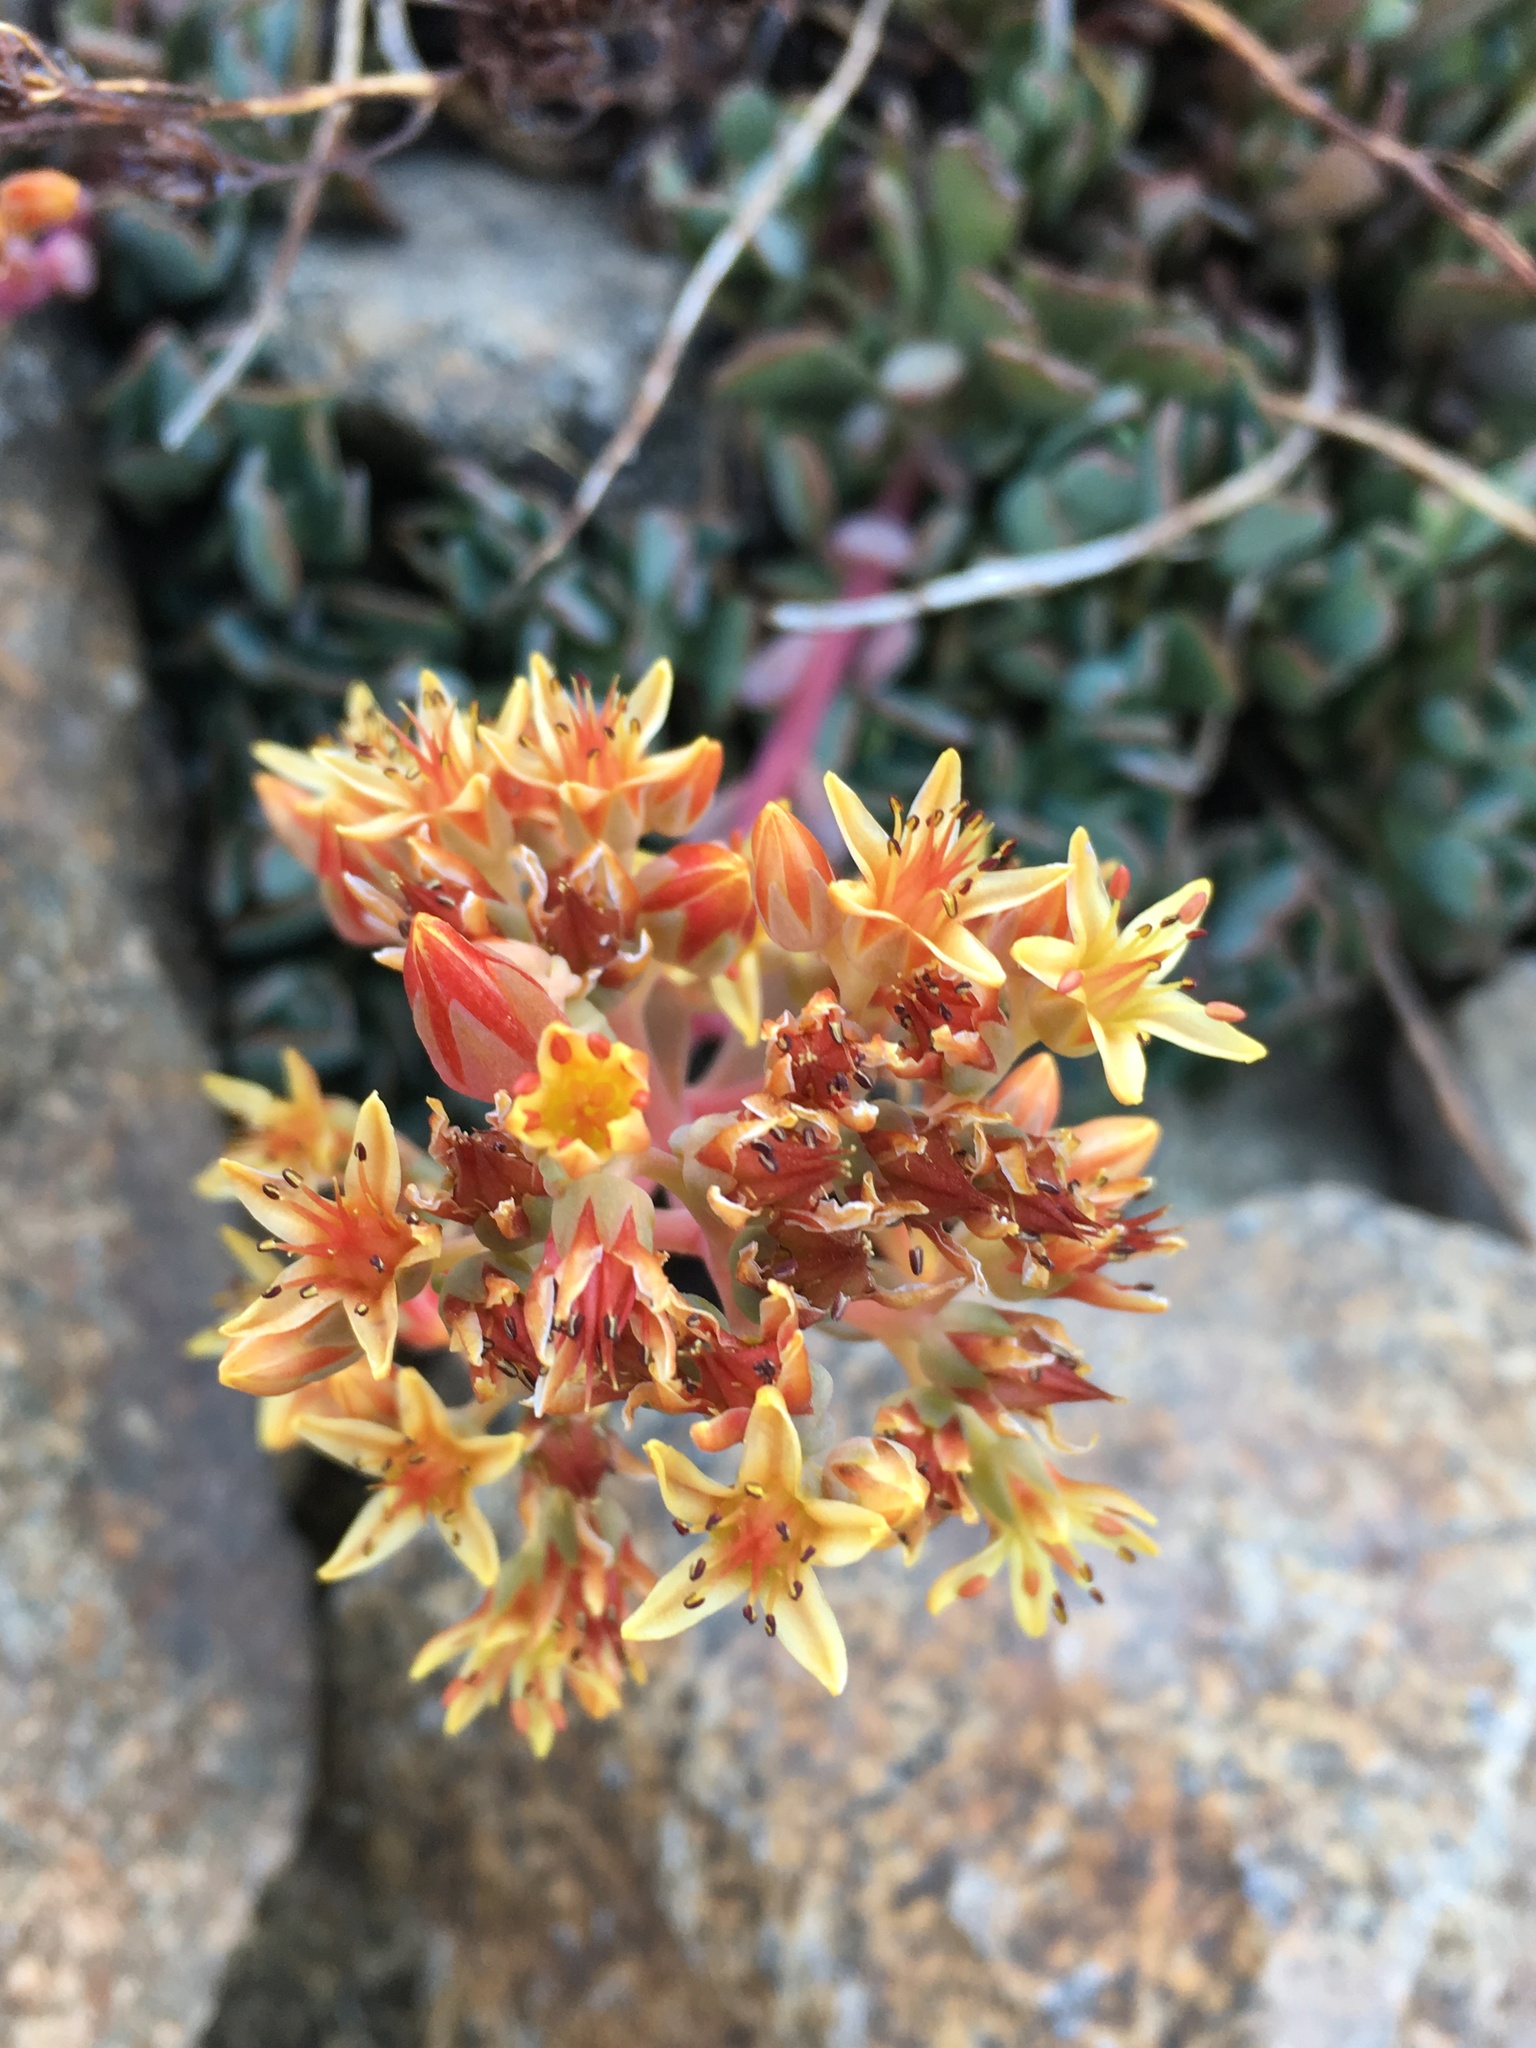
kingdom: Plantae
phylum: Tracheophyta
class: Magnoliopsida
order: Saxifragales
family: Crassulaceae
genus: Sedum
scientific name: Sedum obtusatum
